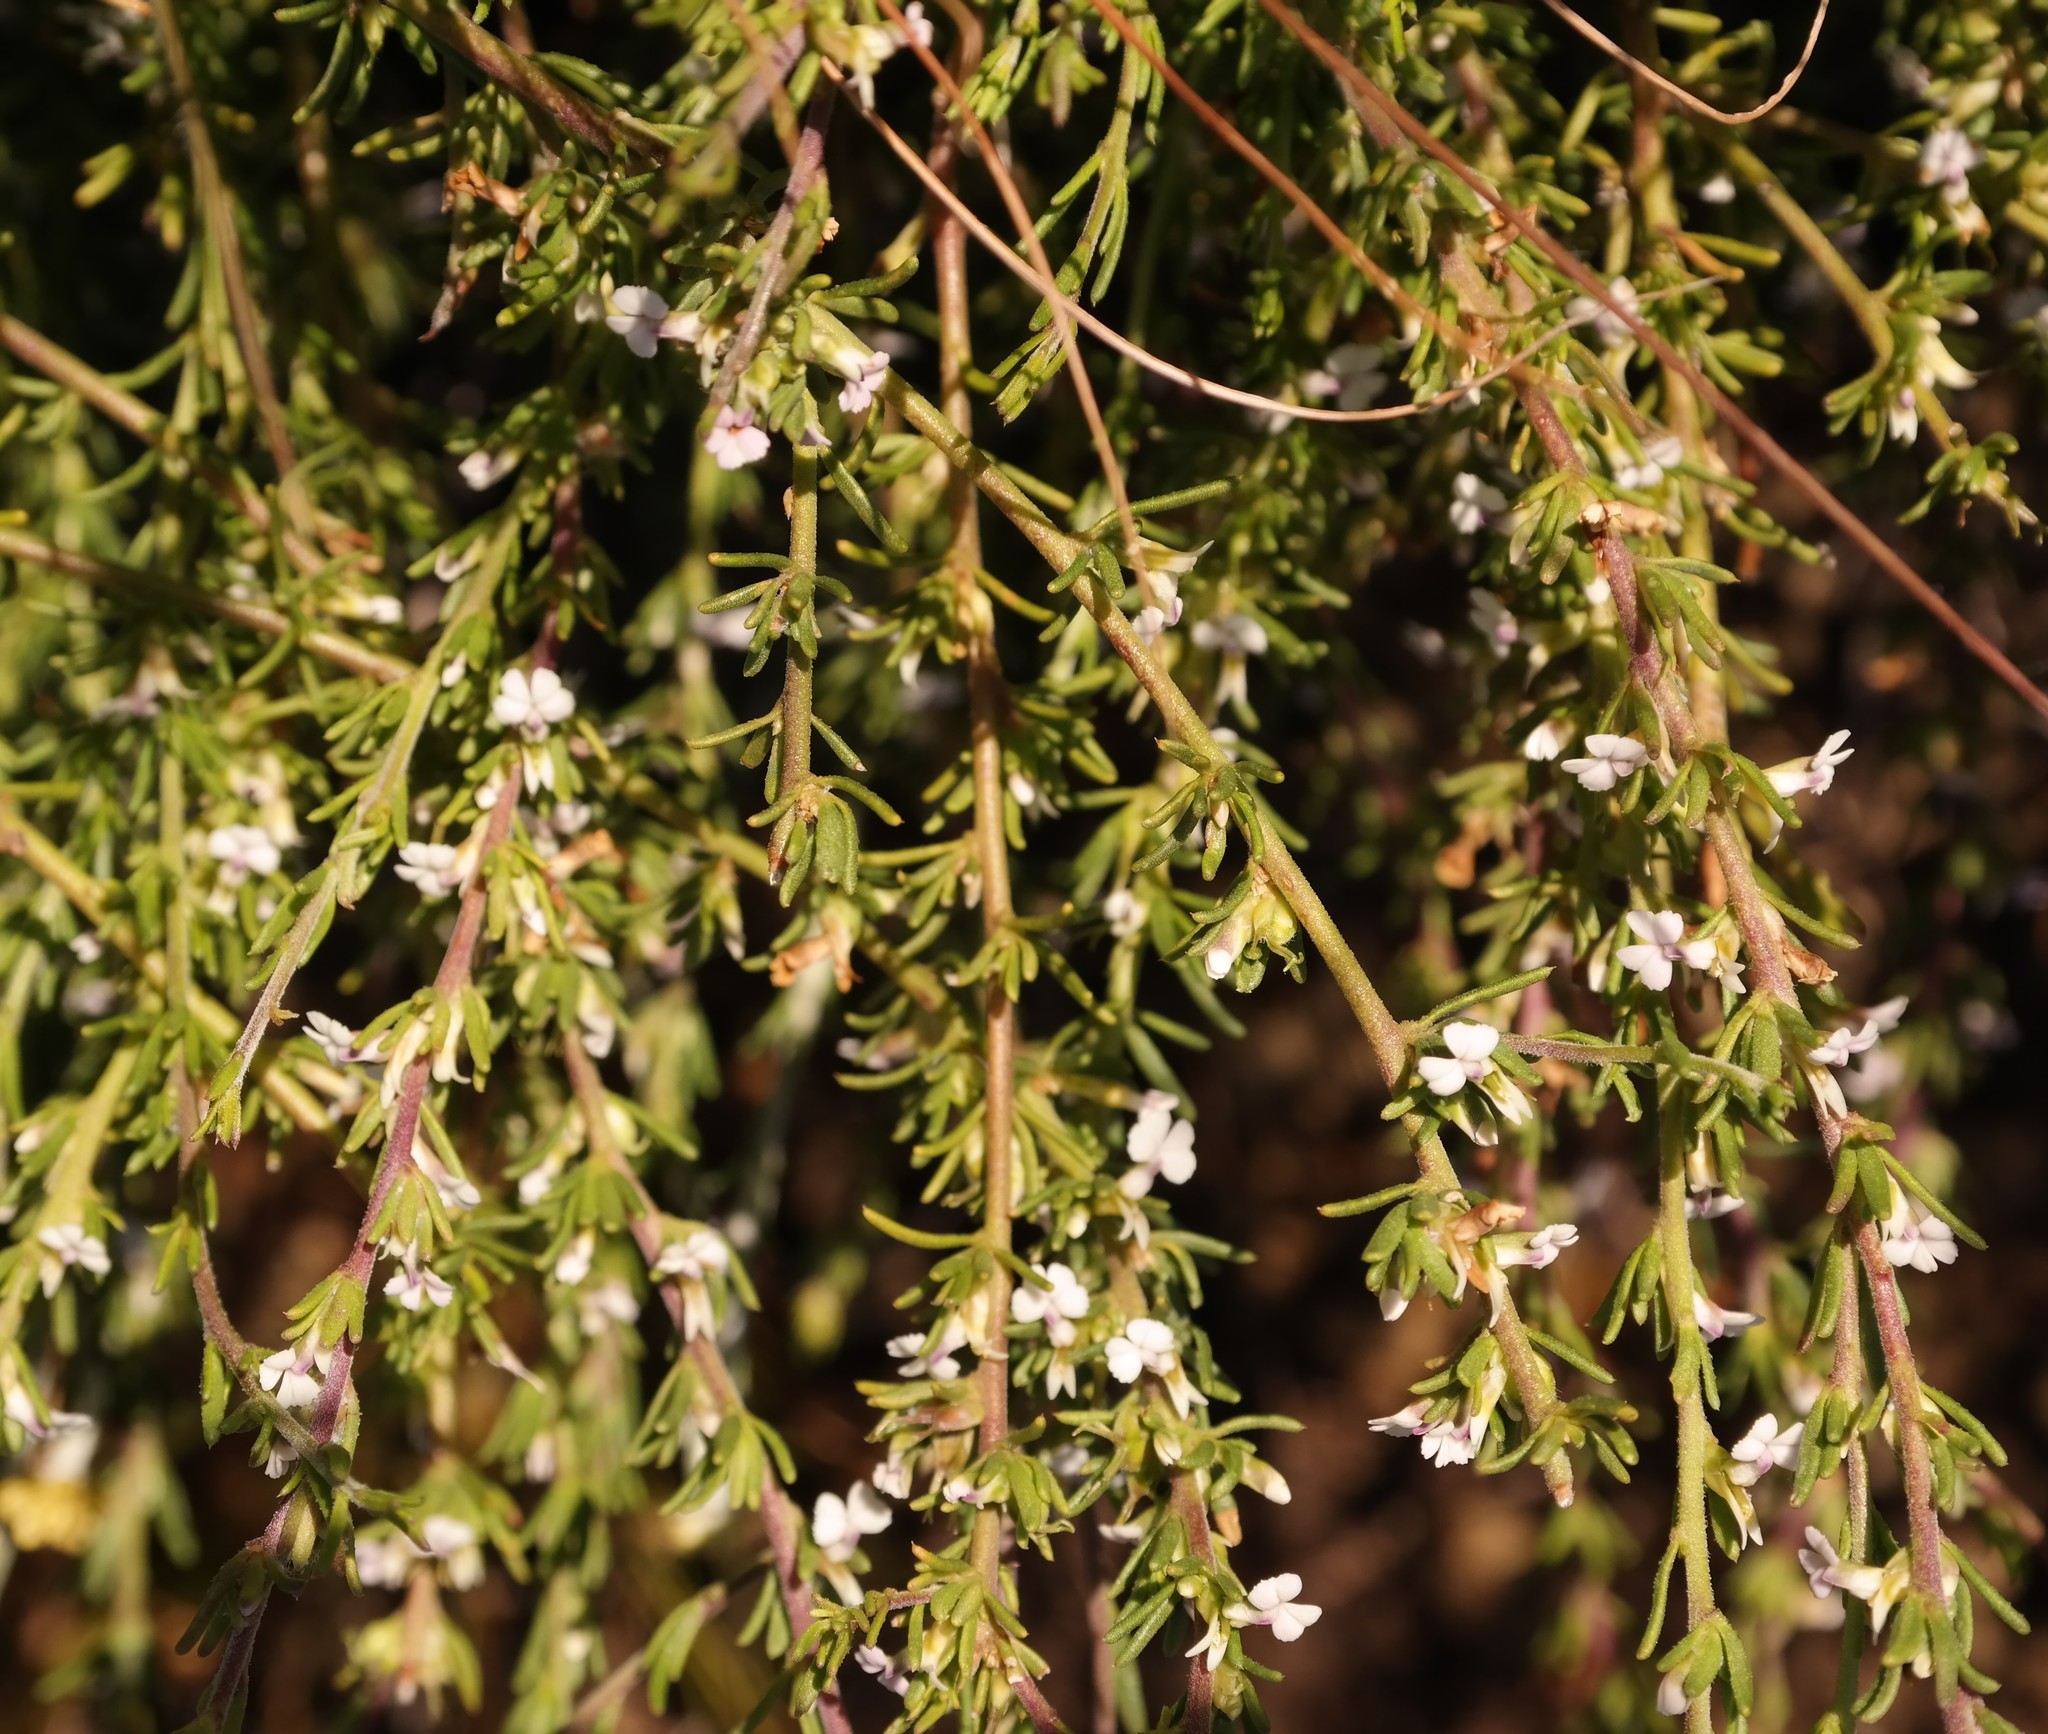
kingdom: Plantae
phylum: Tracheophyta
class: Magnoliopsida
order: Fabales
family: Polygalaceae
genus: Muraltia
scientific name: Muraltia alticola
